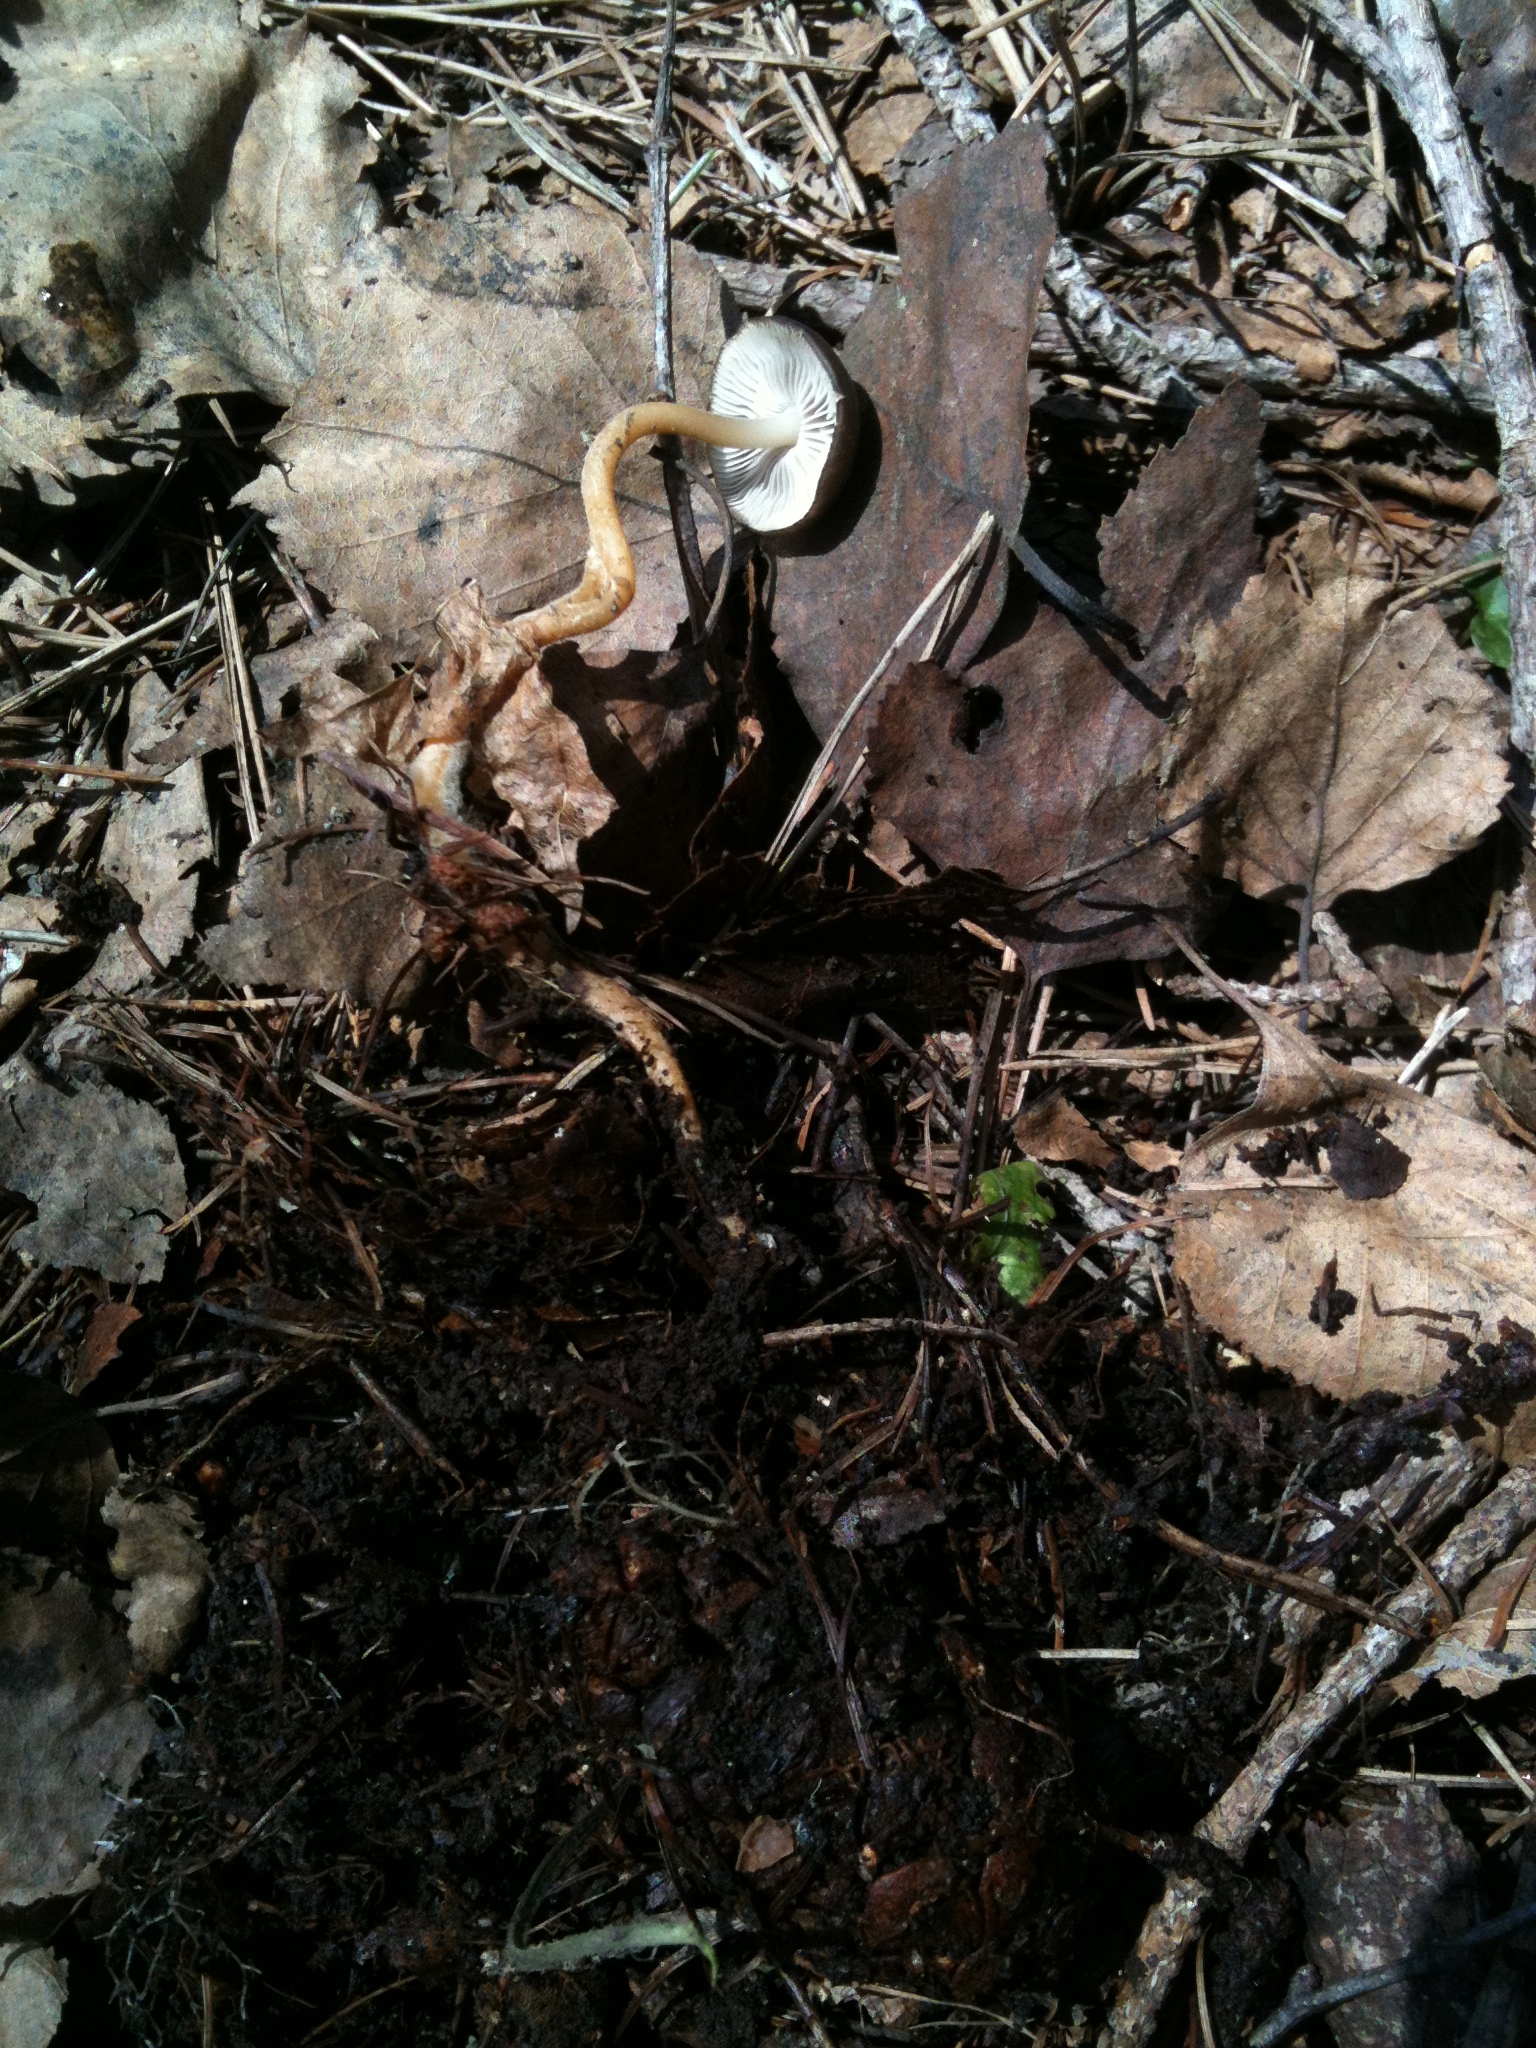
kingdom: Fungi
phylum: Basidiomycota
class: Agaricomycetes
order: Agaricales
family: Physalacriaceae
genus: Strobilurus
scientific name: Strobilurus stephanocystis
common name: Russian conecap
